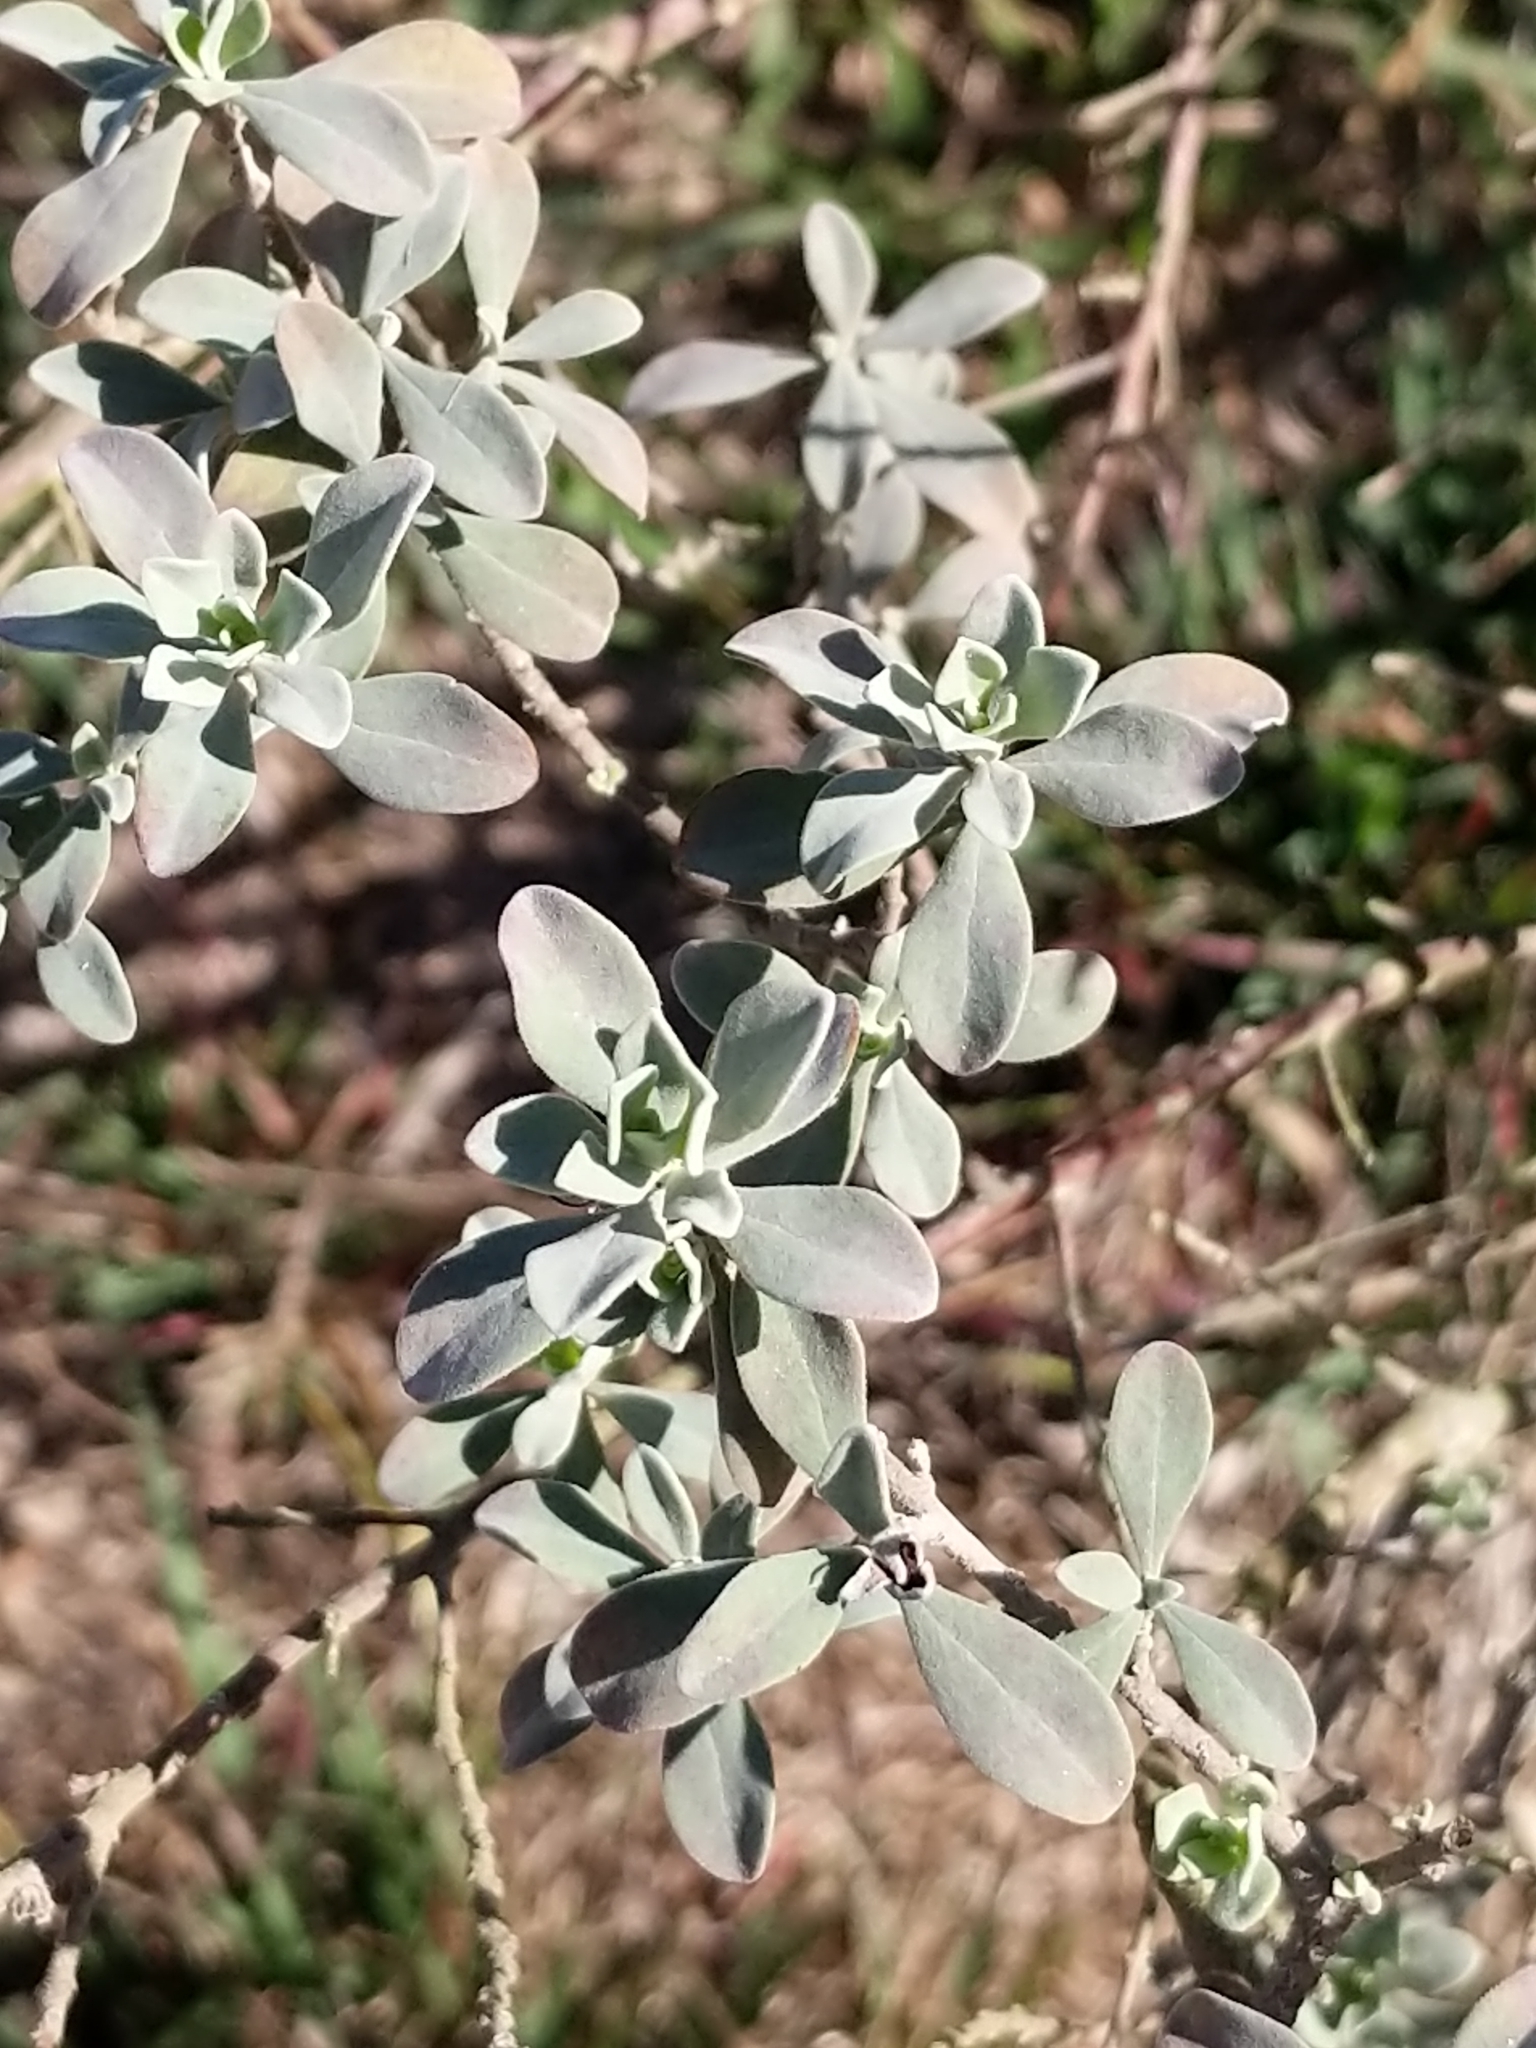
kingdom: Plantae
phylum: Tracheophyta
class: Magnoliopsida
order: Lamiales
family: Scrophulariaceae
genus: Leucophyllum
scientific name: Leucophyllum frutescens
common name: Texas silverleaf
